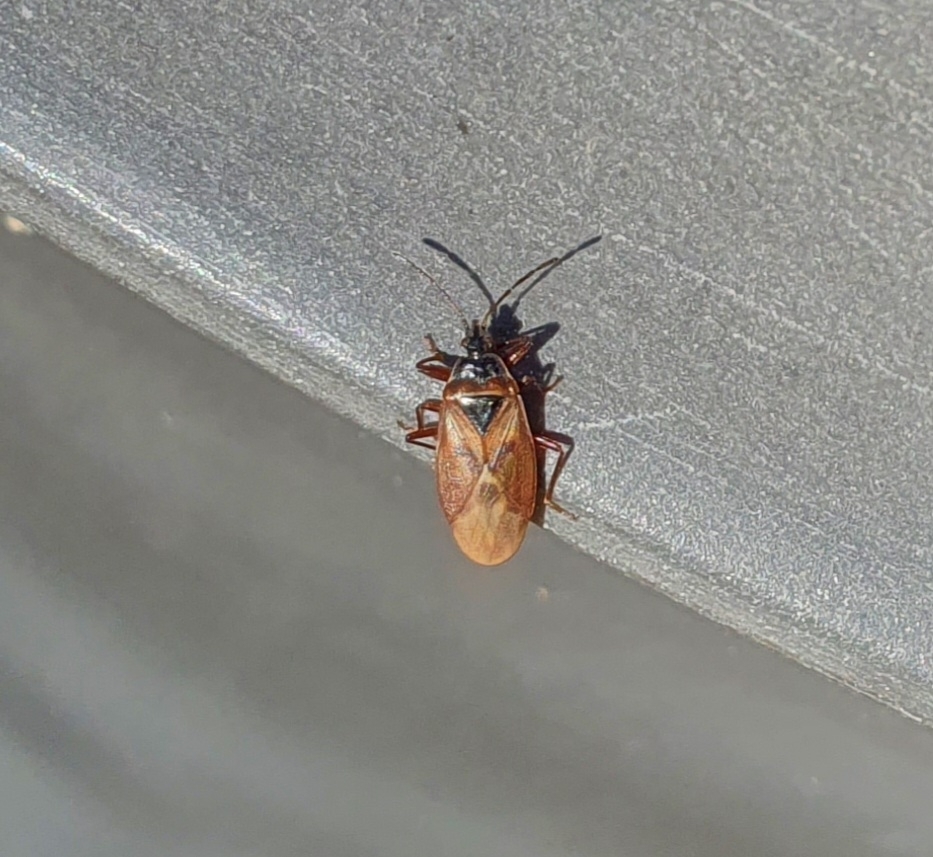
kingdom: Animalia
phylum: Arthropoda
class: Insecta
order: Hemiptera
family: Rhyparochromidae
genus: Gastrodes
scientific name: Gastrodes abietum
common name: Spruce cone bug
